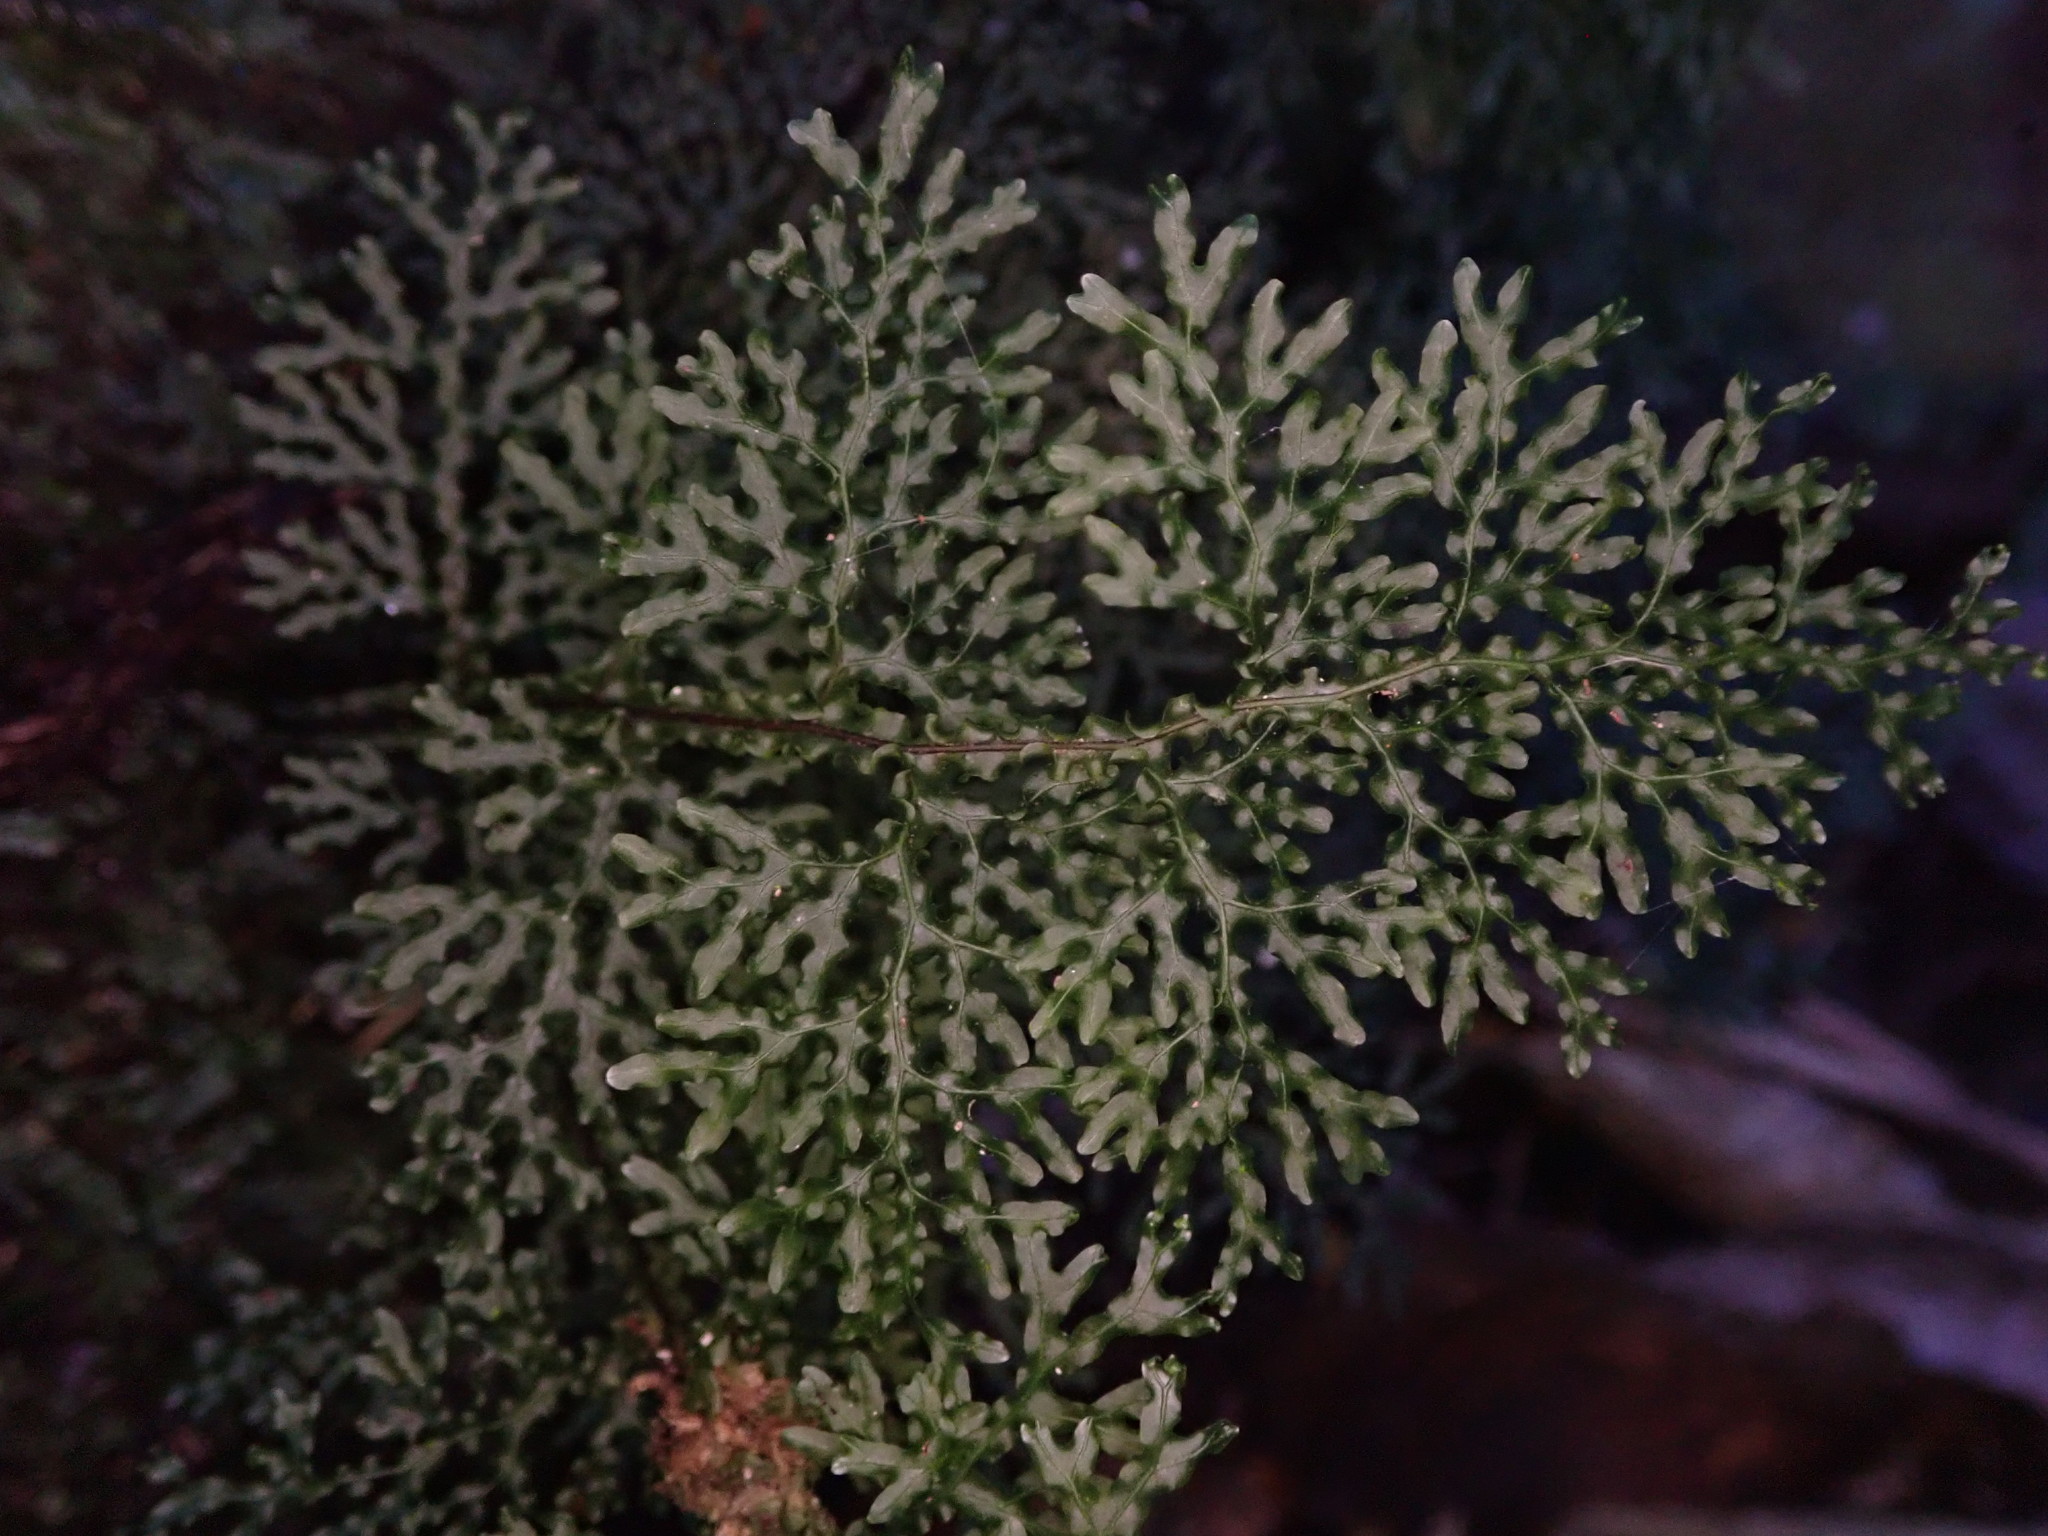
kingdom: Plantae
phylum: Tracheophyta
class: Polypodiopsida
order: Hymenophyllales
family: Hymenophyllaceae
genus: Hymenophyllum
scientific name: Hymenophyllum flexuosum
